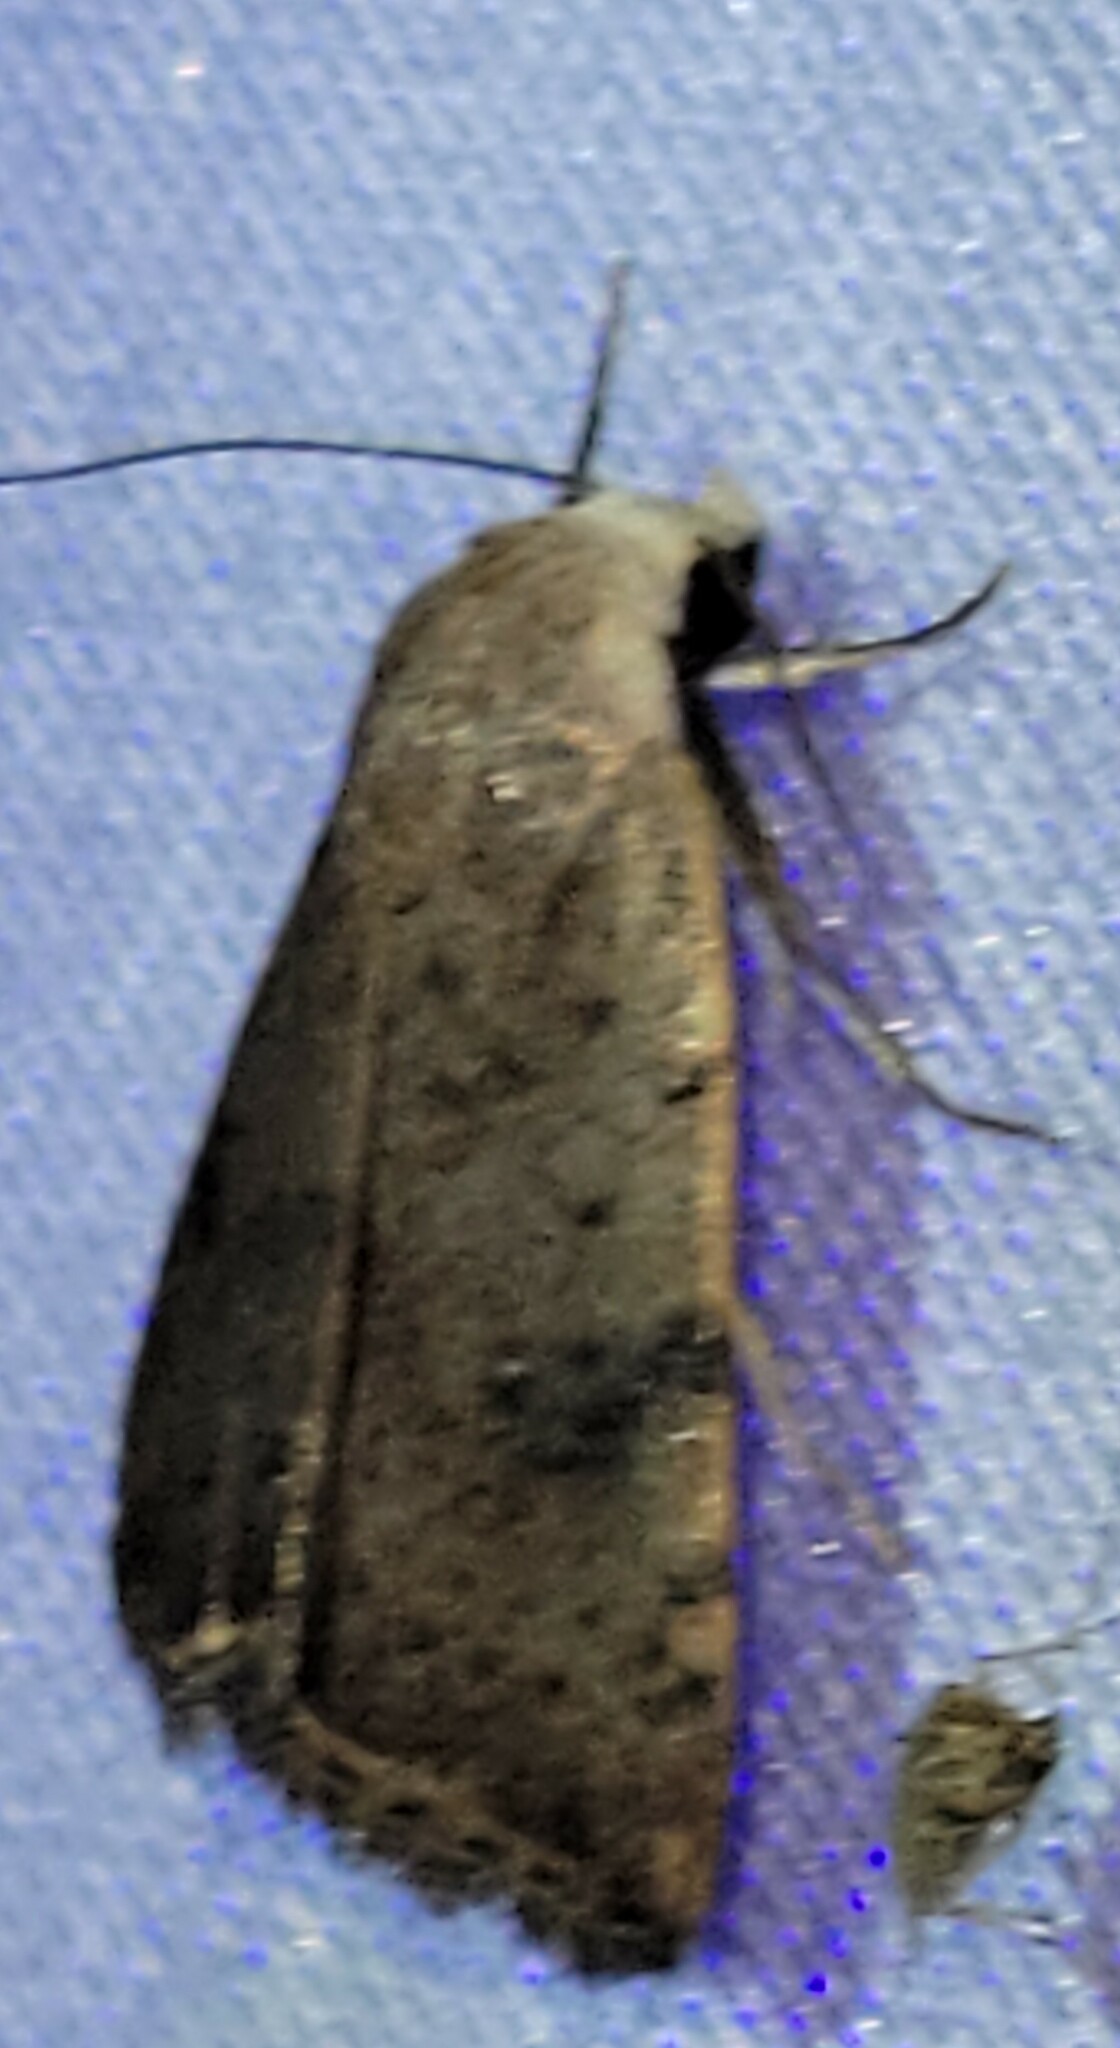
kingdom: Animalia
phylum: Arthropoda
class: Insecta
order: Lepidoptera
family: Noctuidae
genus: Micrathetis
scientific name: Micrathetis triplex
